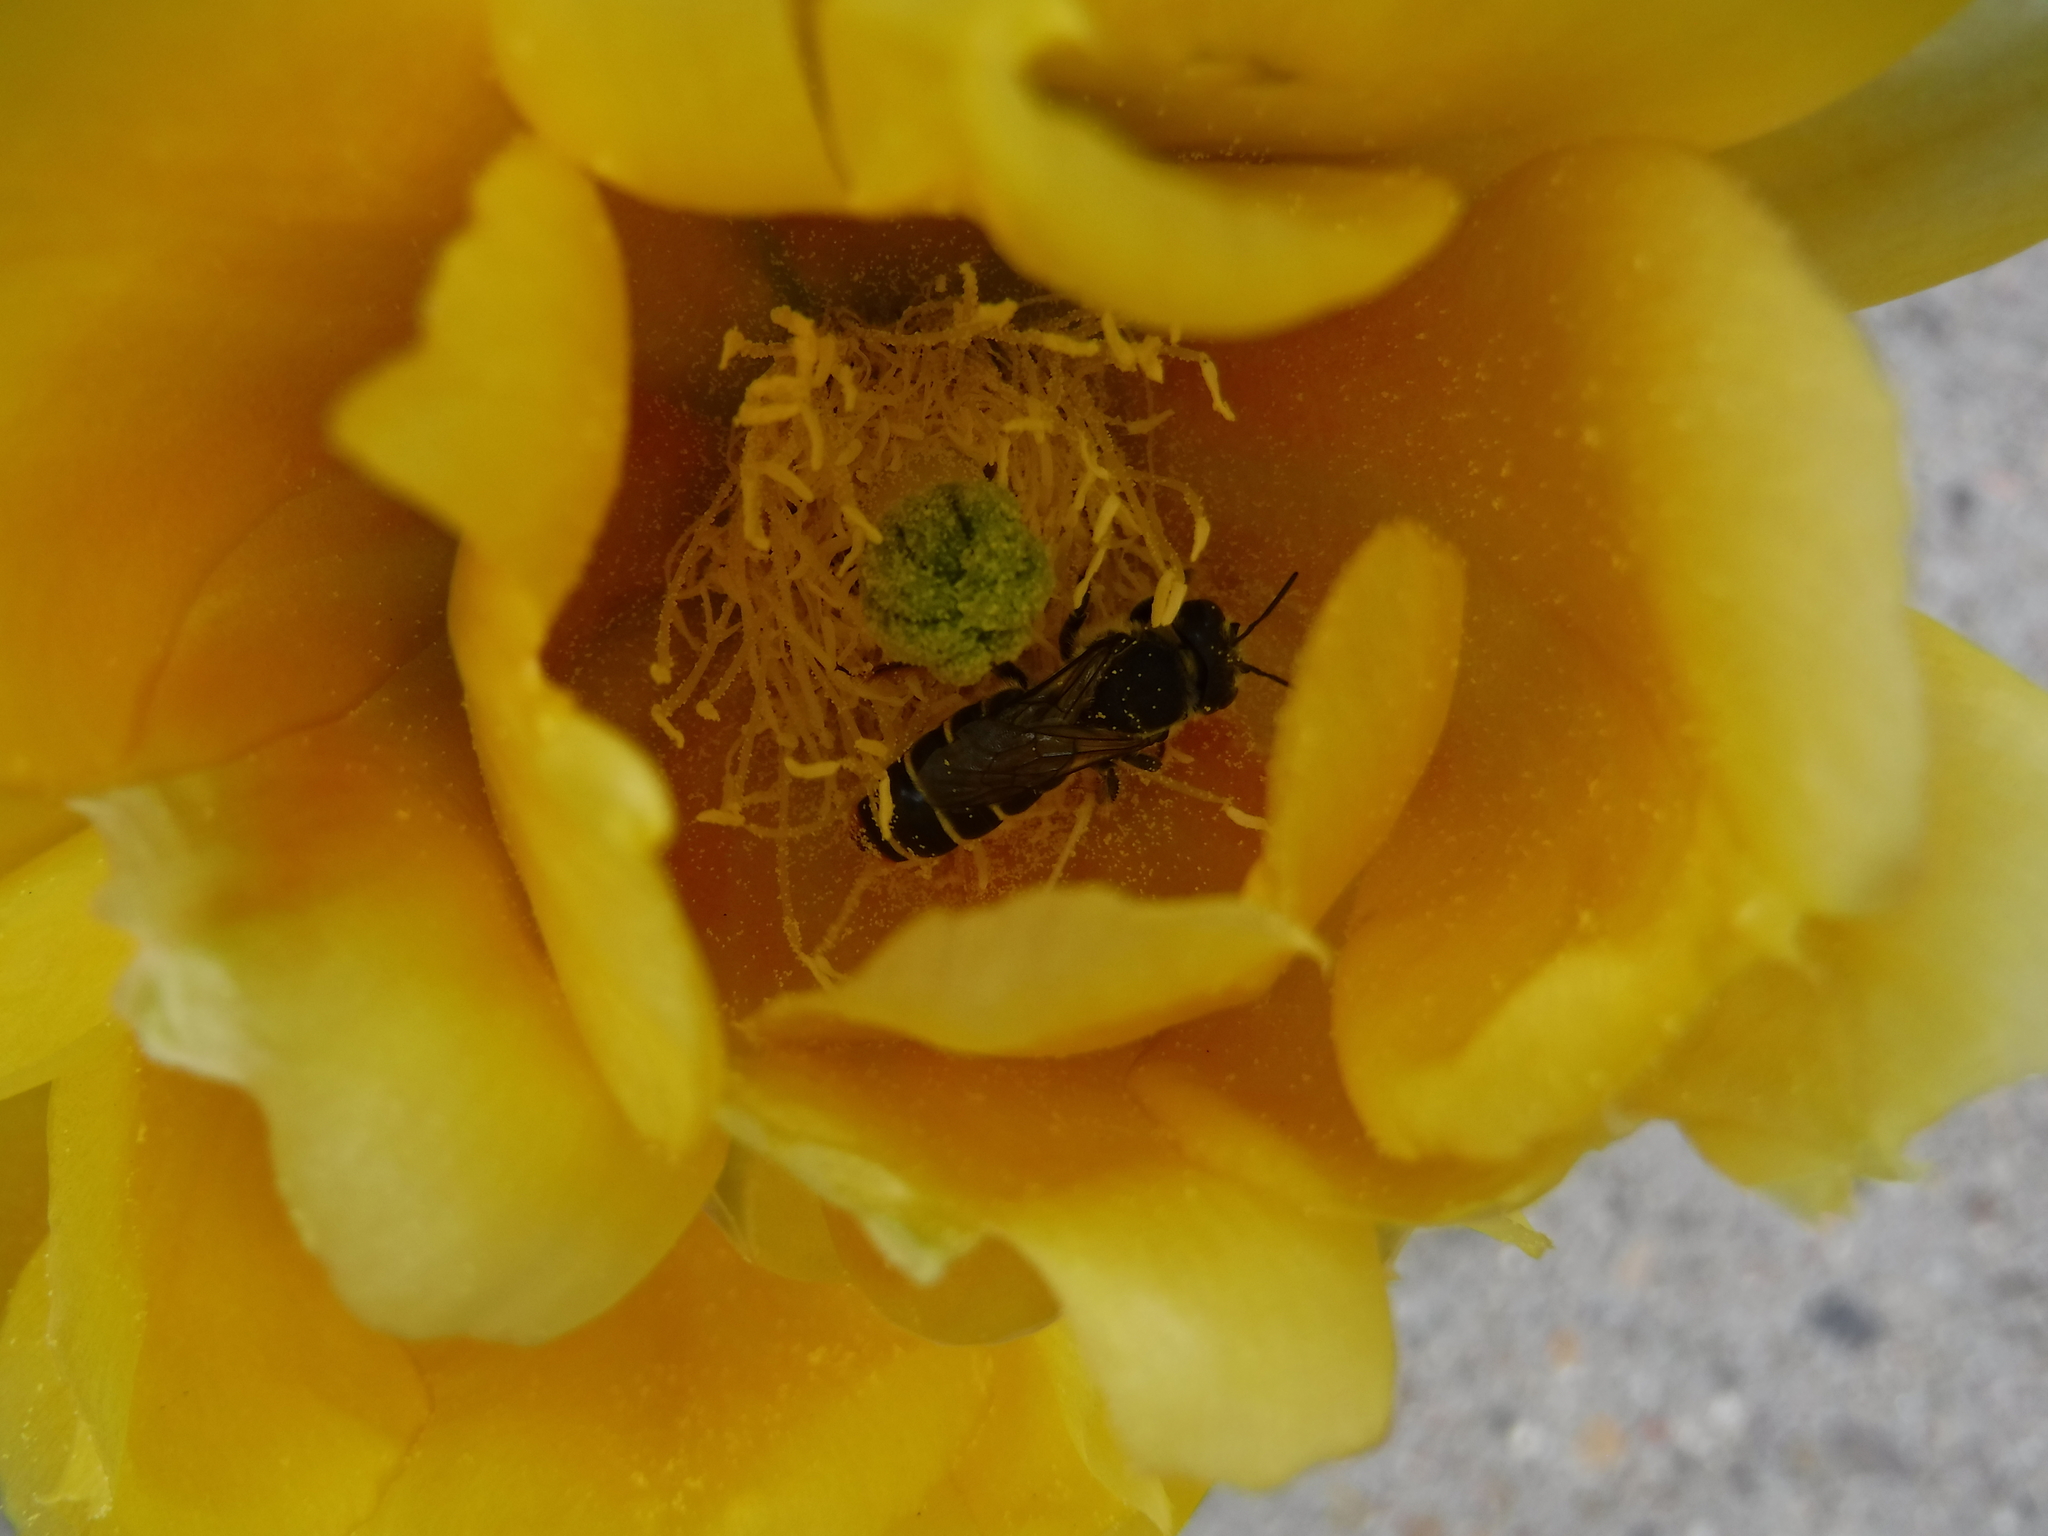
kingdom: Animalia
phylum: Arthropoda
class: Insecta
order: Hymenoptera
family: Megachilidae
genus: Lithurgopsis
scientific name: Lithurgopsis apicalis
